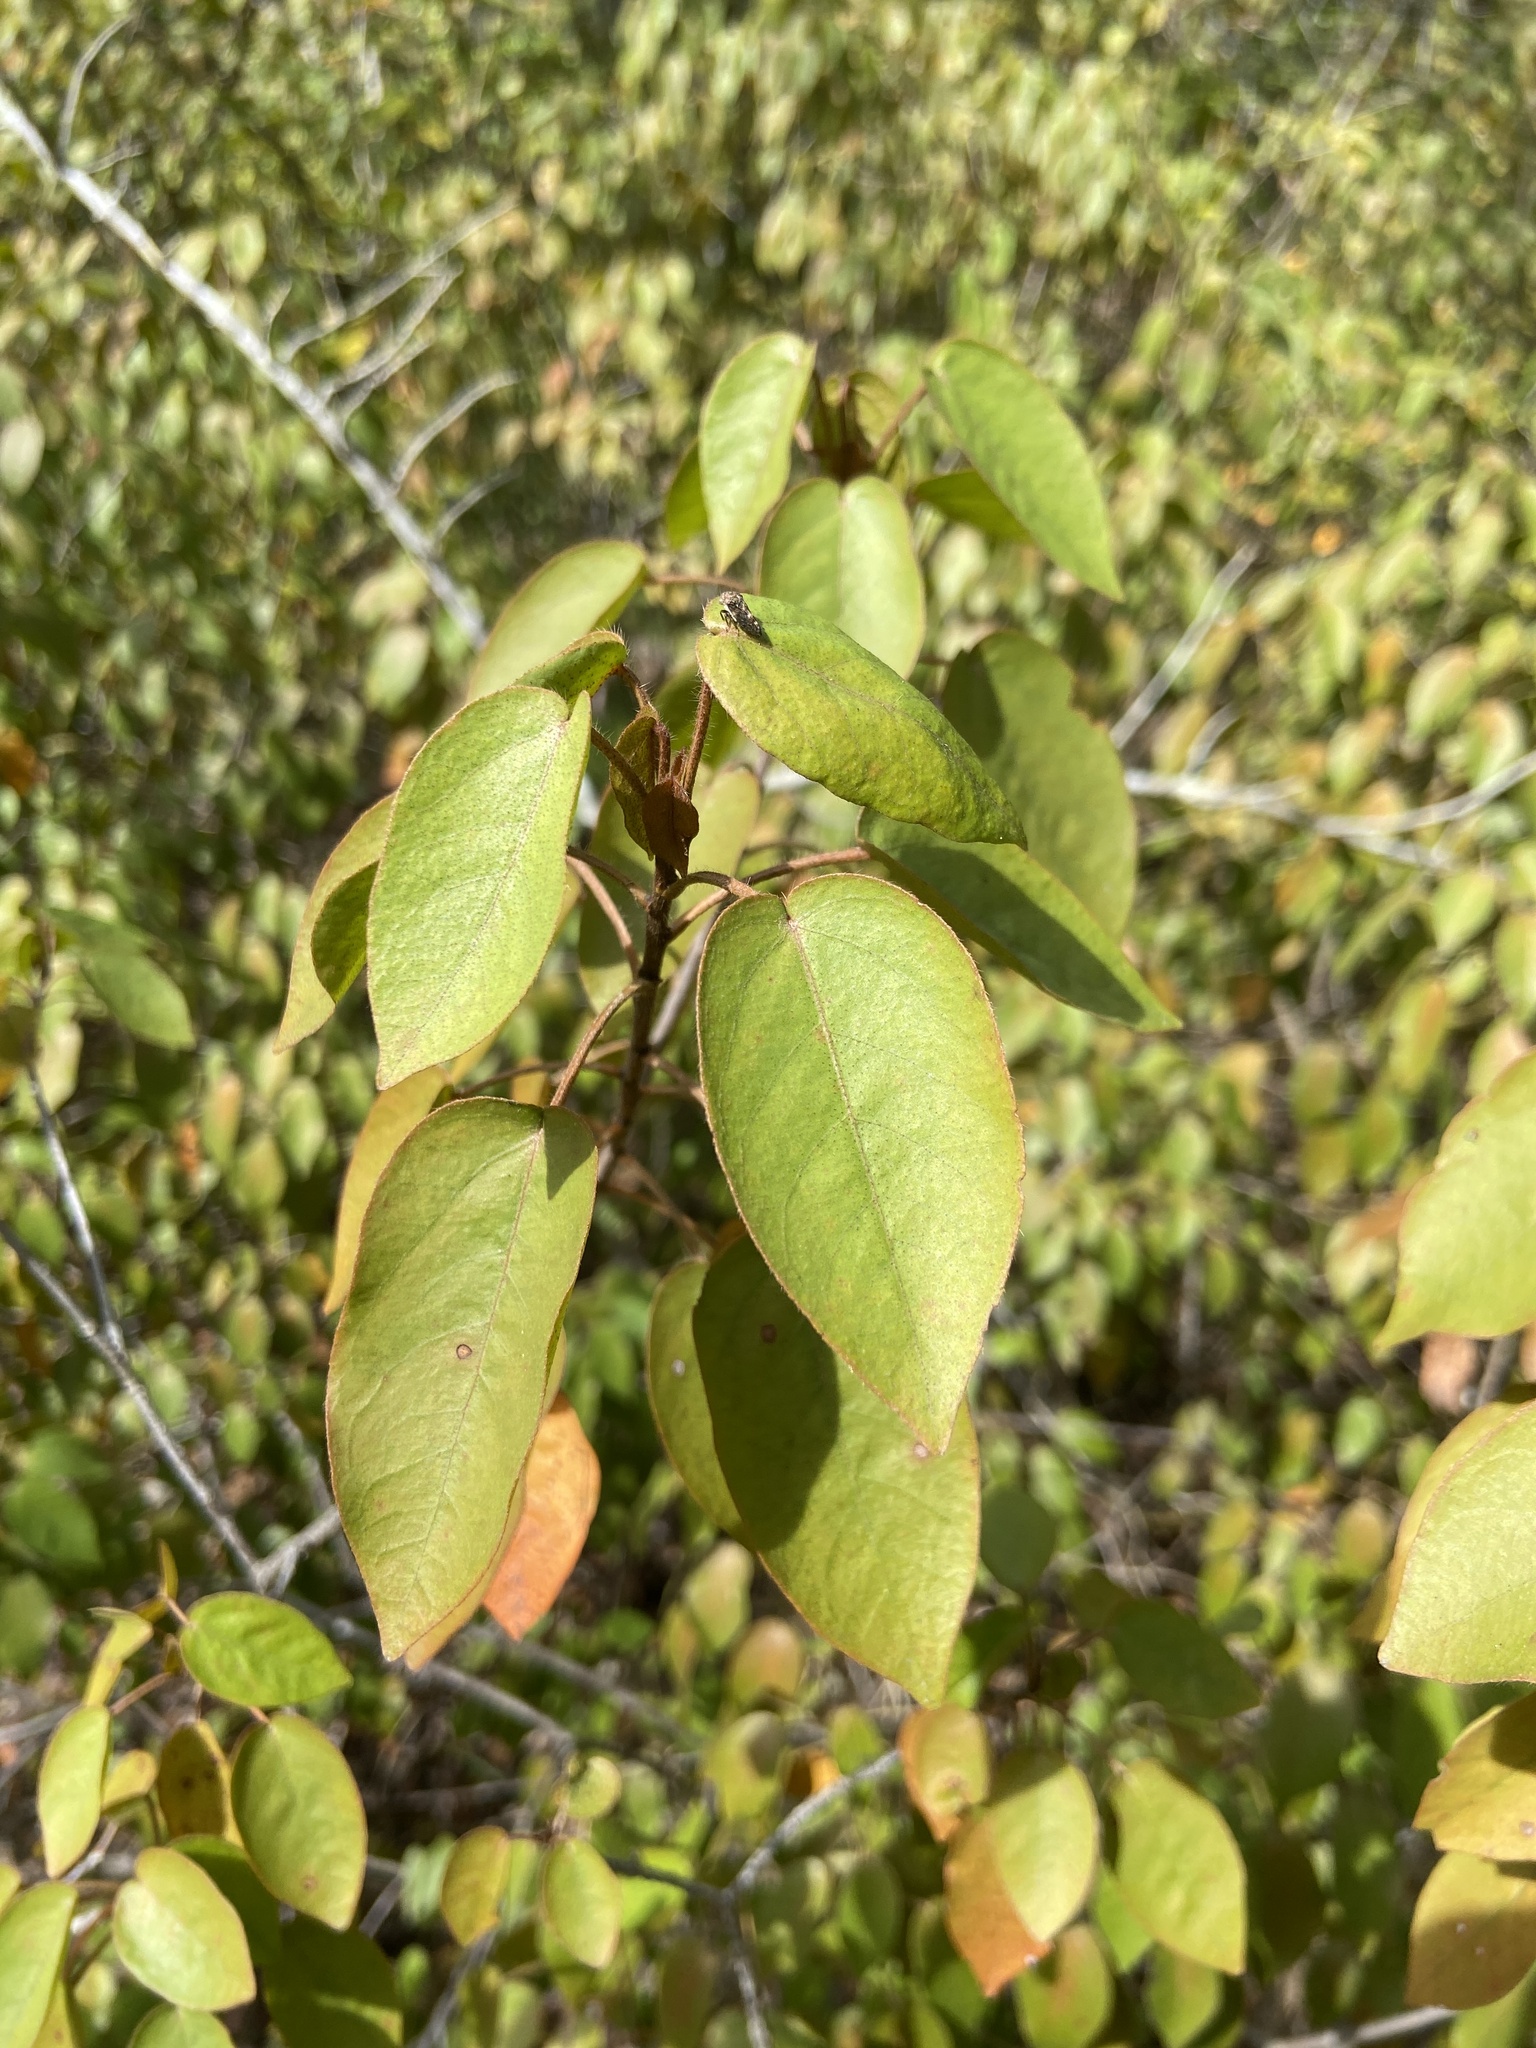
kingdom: Plantae
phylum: Tracheophyta
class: Magnoliopsida
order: Malpighiales
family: Euphorbiaceae
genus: Croton
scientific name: Croton glabellus
